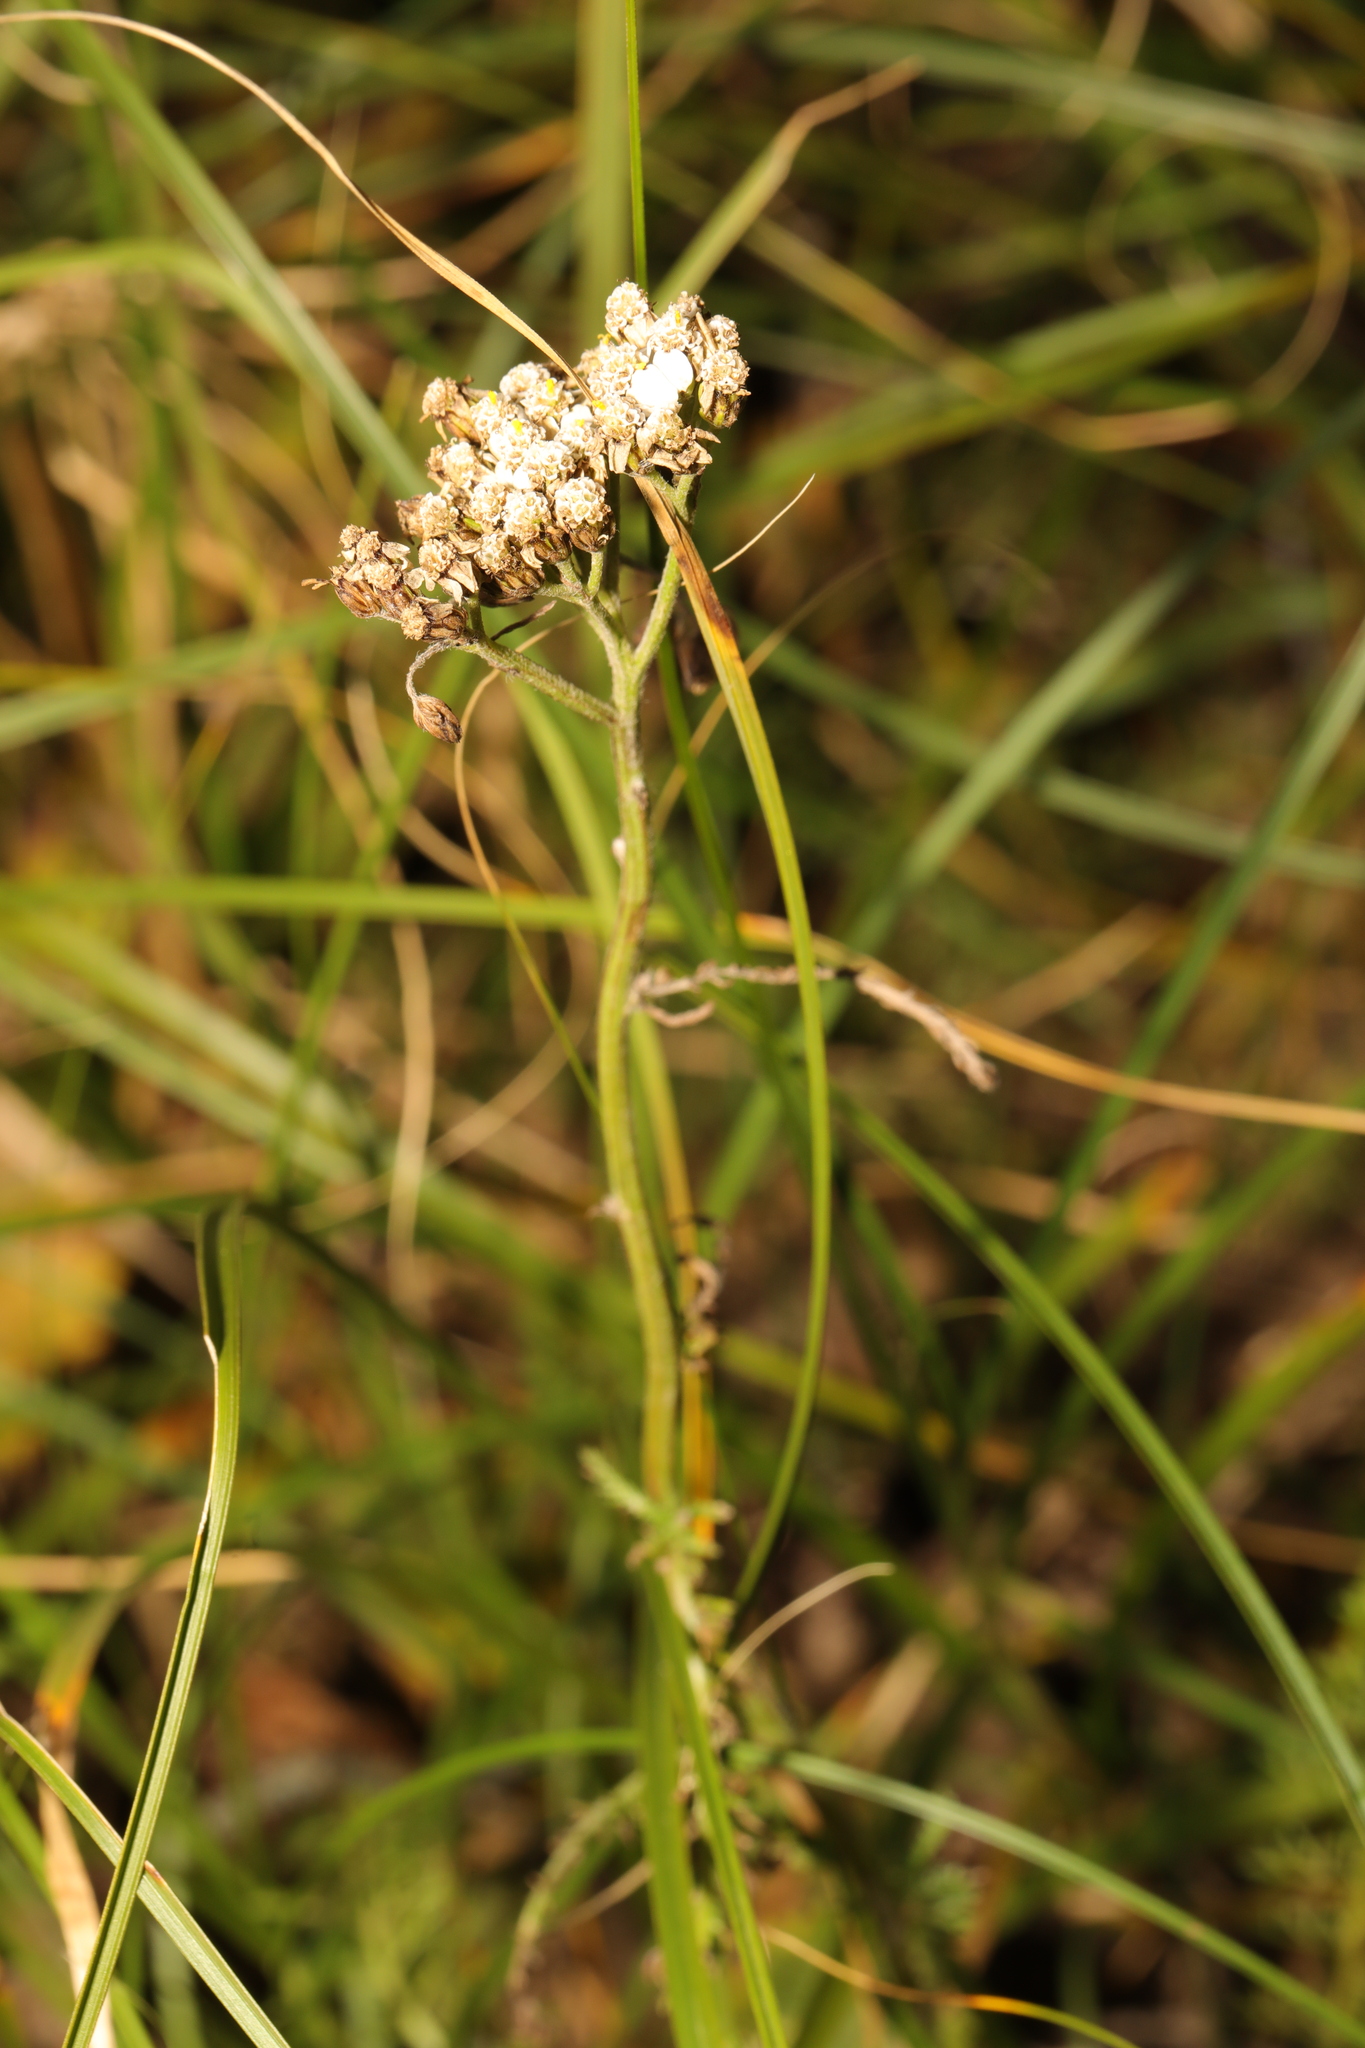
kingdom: Plantae
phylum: Tracheophyta
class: Magnoliopsida
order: Asterales
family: Asteraceae
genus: Achillea
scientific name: Achillea millefolium
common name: Yarrow
